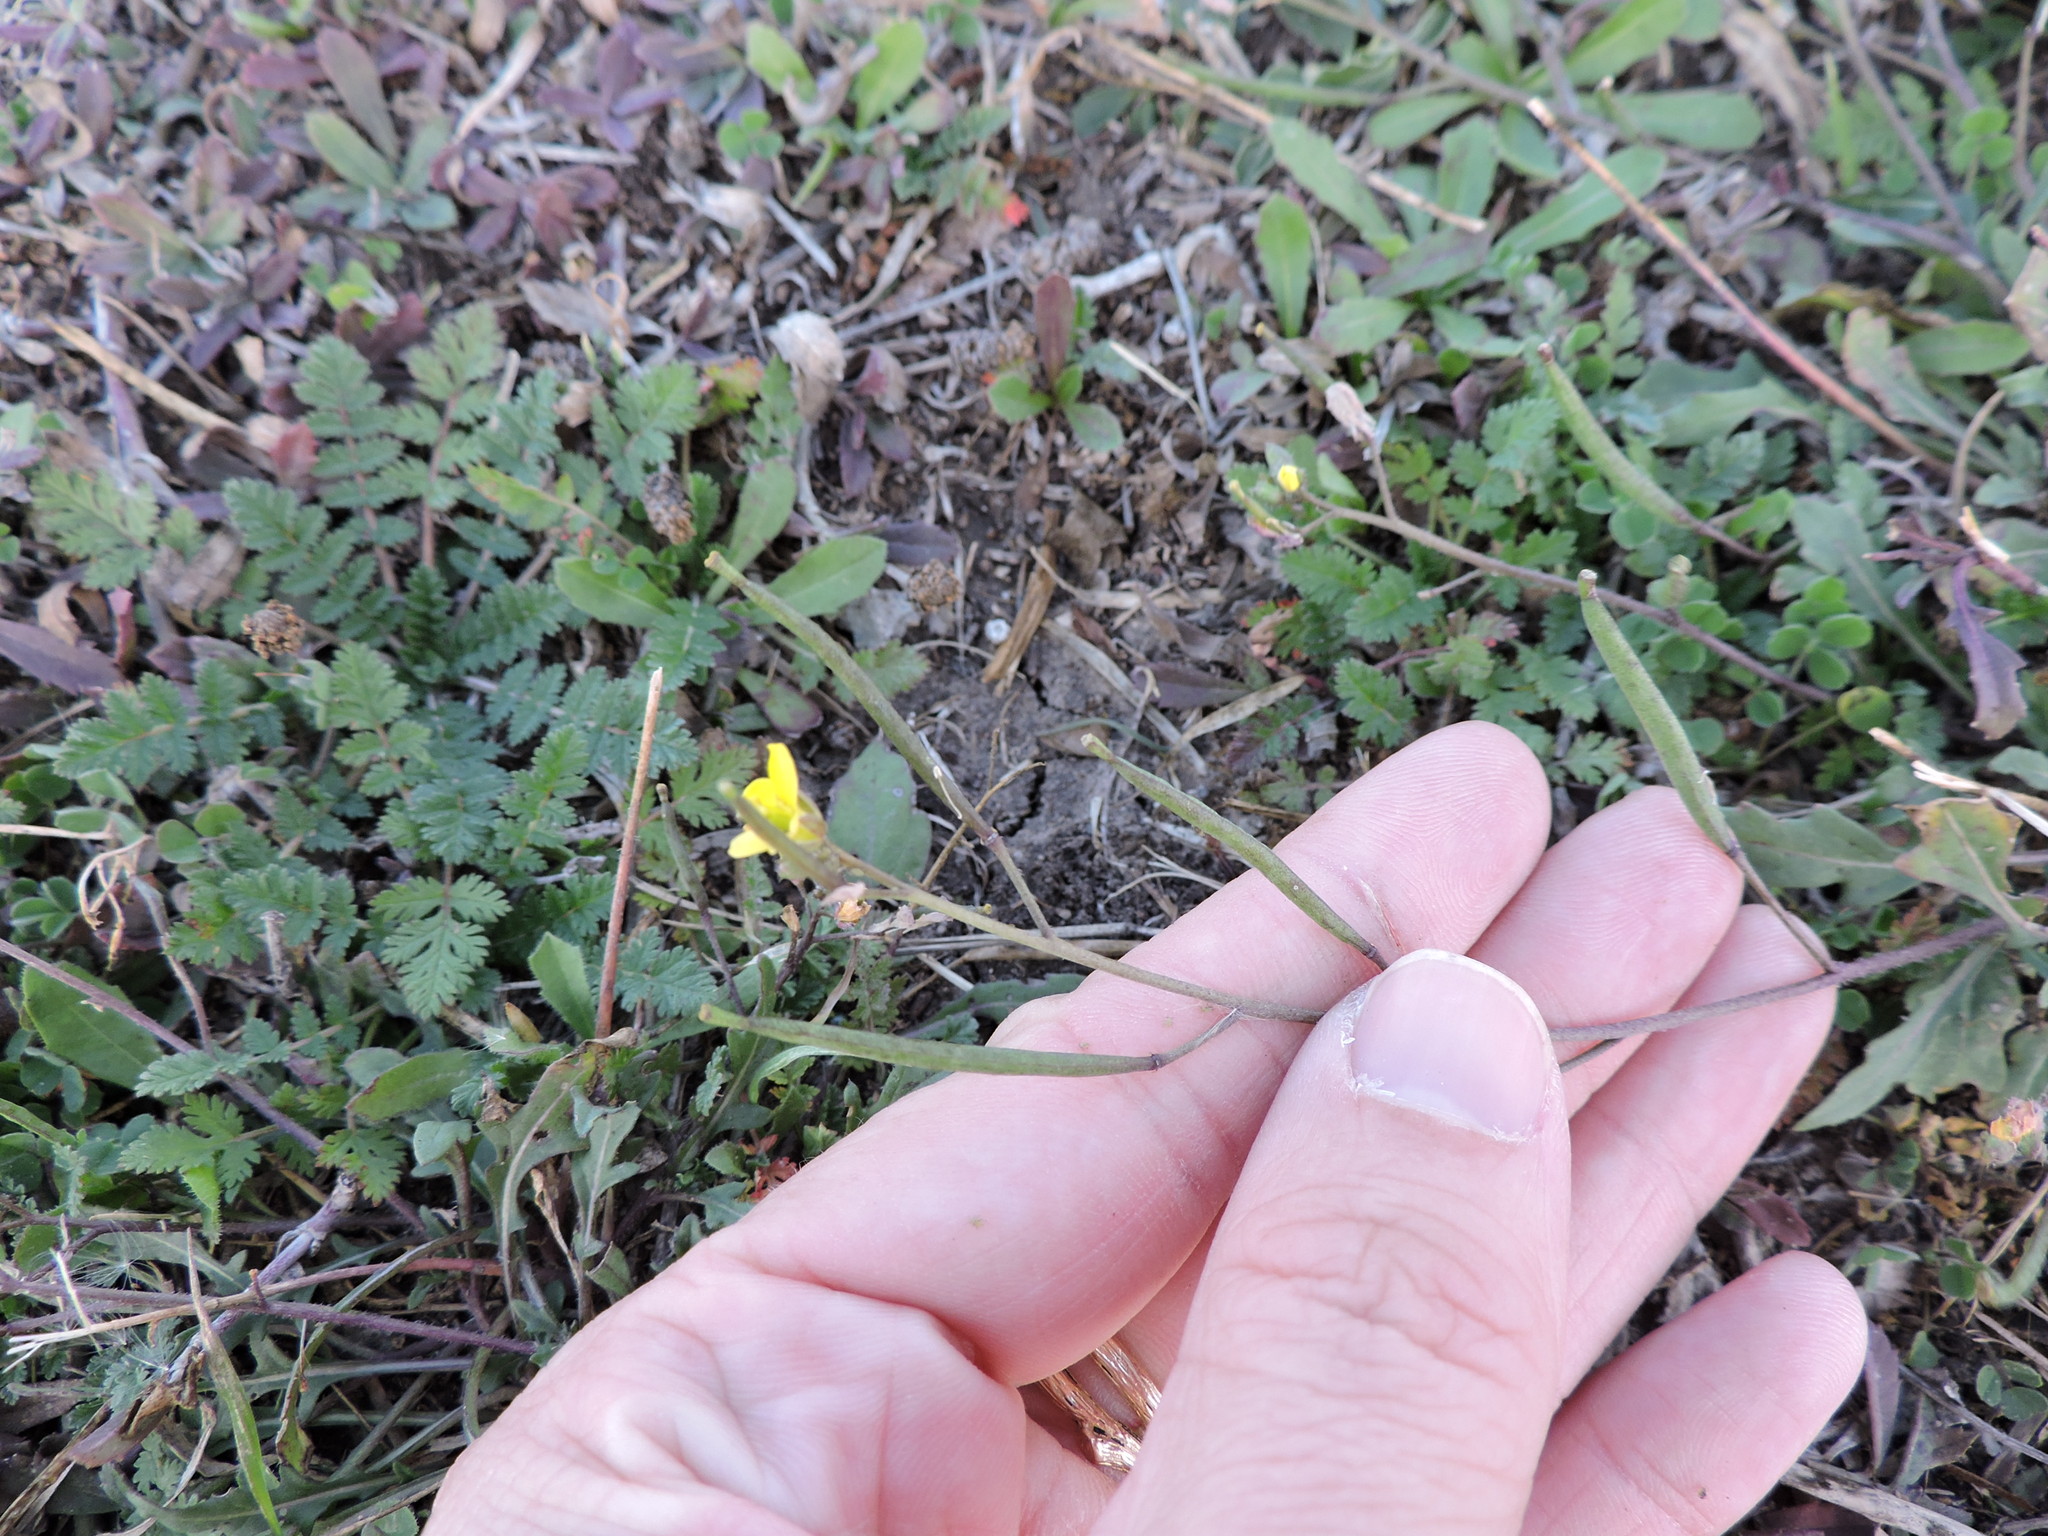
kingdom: Plantae
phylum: Tracheophyta
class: Magnoliopsida
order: Brassicales
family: Brassicaceae
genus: Diplotaxis
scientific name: Diplotaxis muralis
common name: Annual wall-rocket
